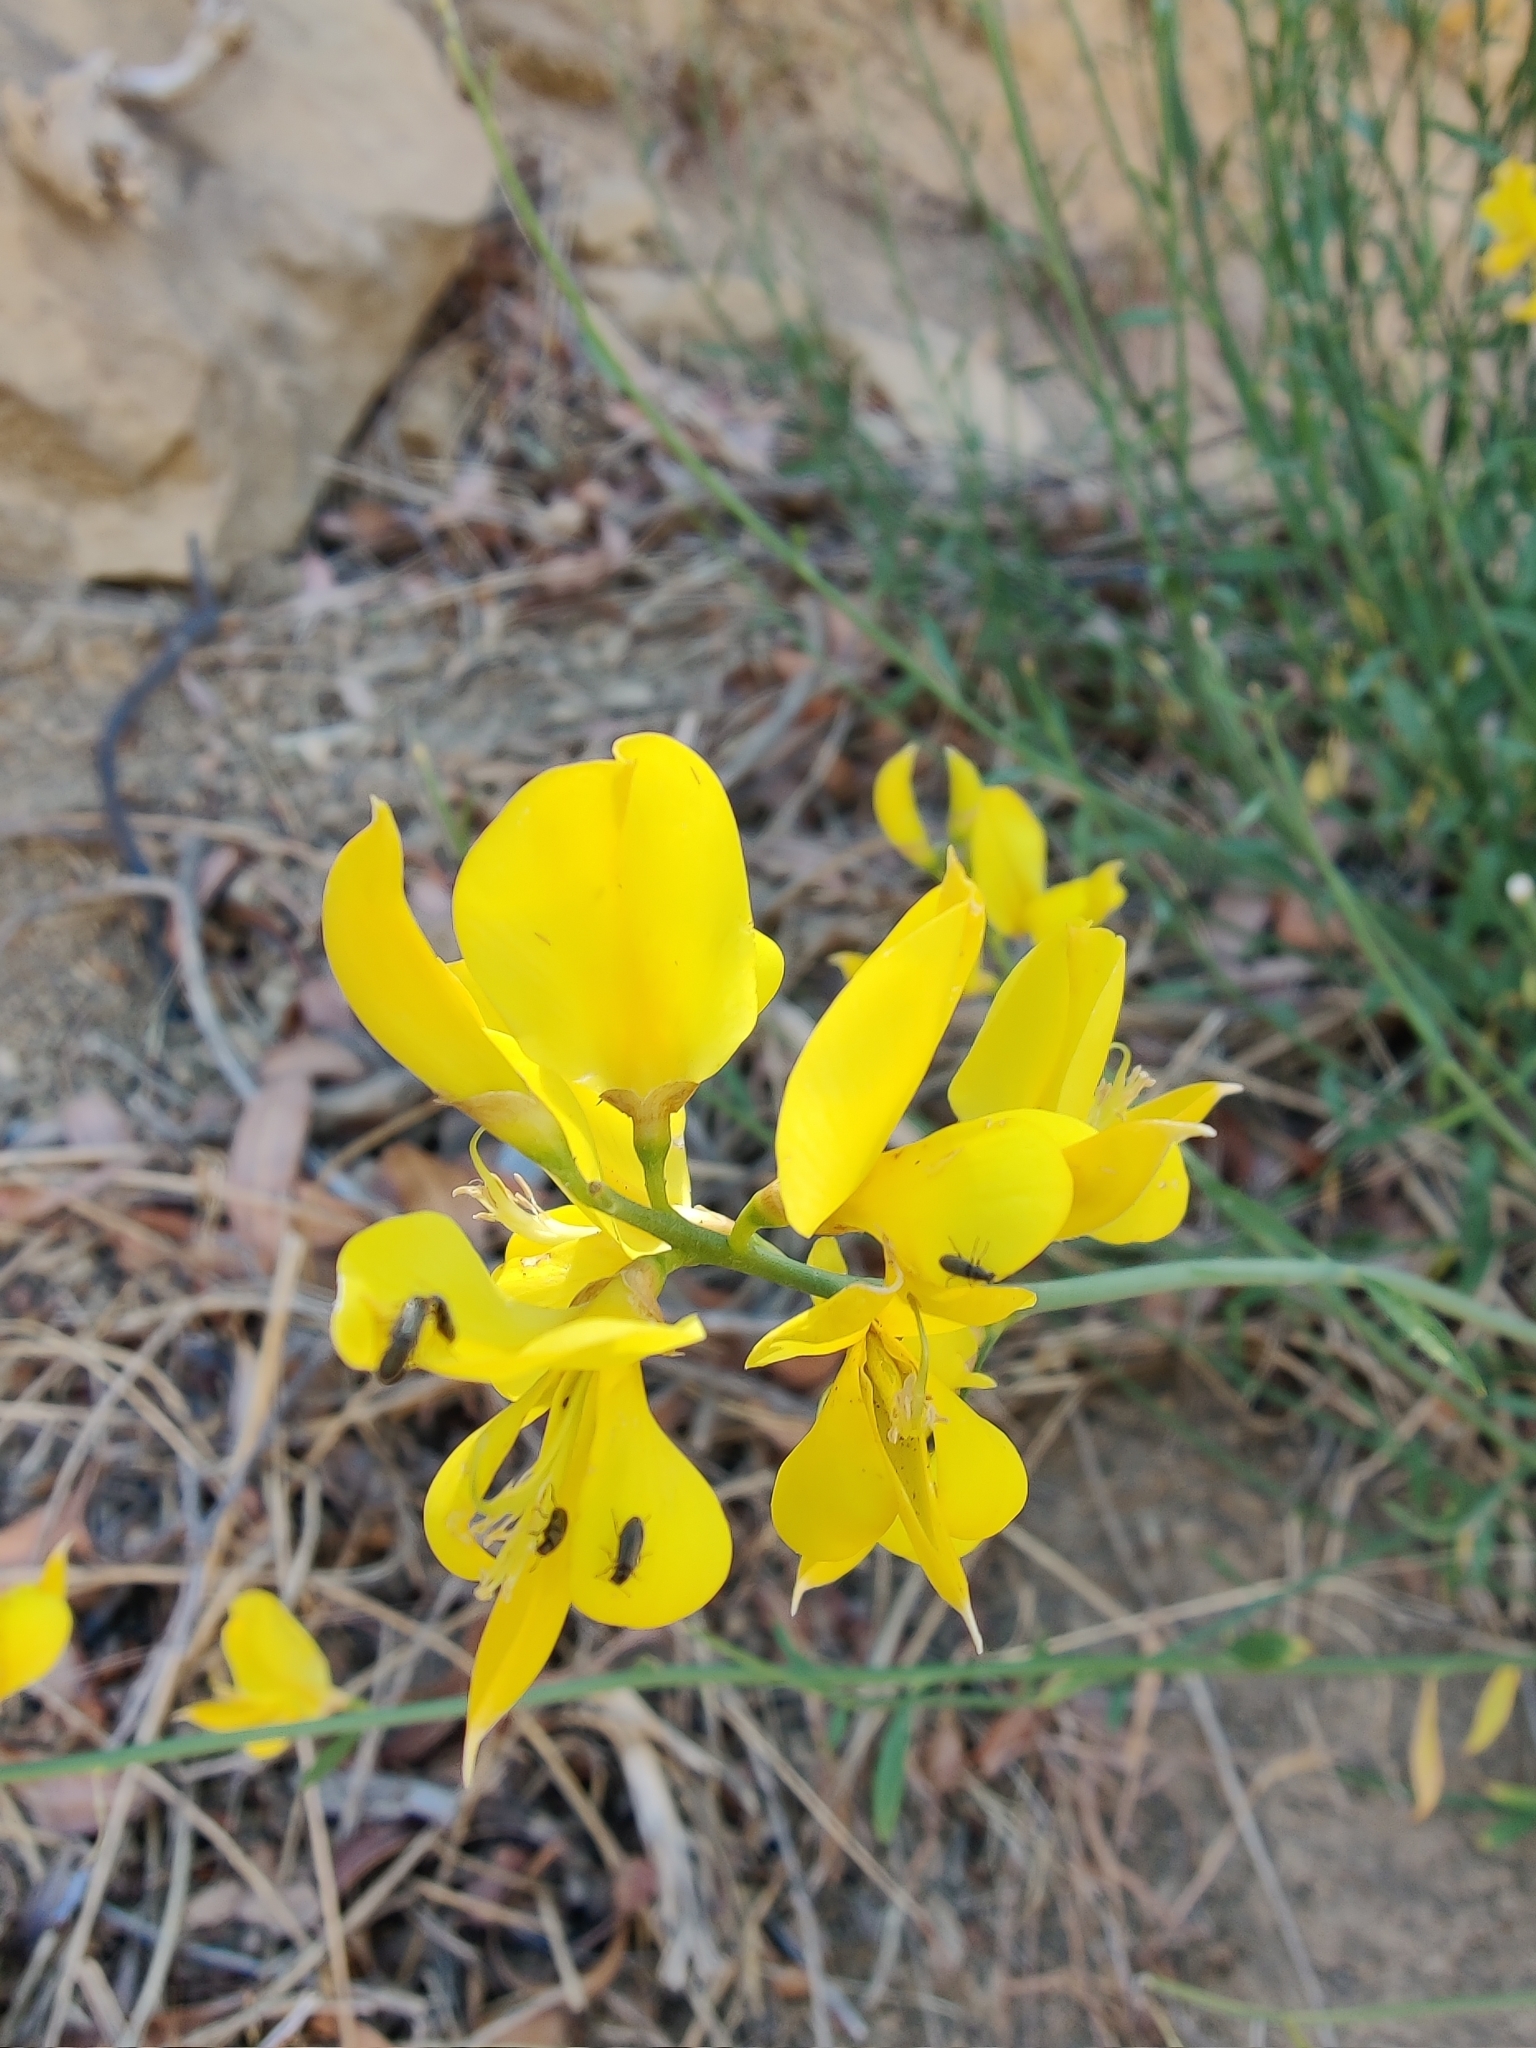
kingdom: Plantae
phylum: Tracheophyta
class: Magnoliopsida
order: Fabales
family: Fabaceae
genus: Spartium
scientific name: Spartium junceum
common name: Spanish broom
